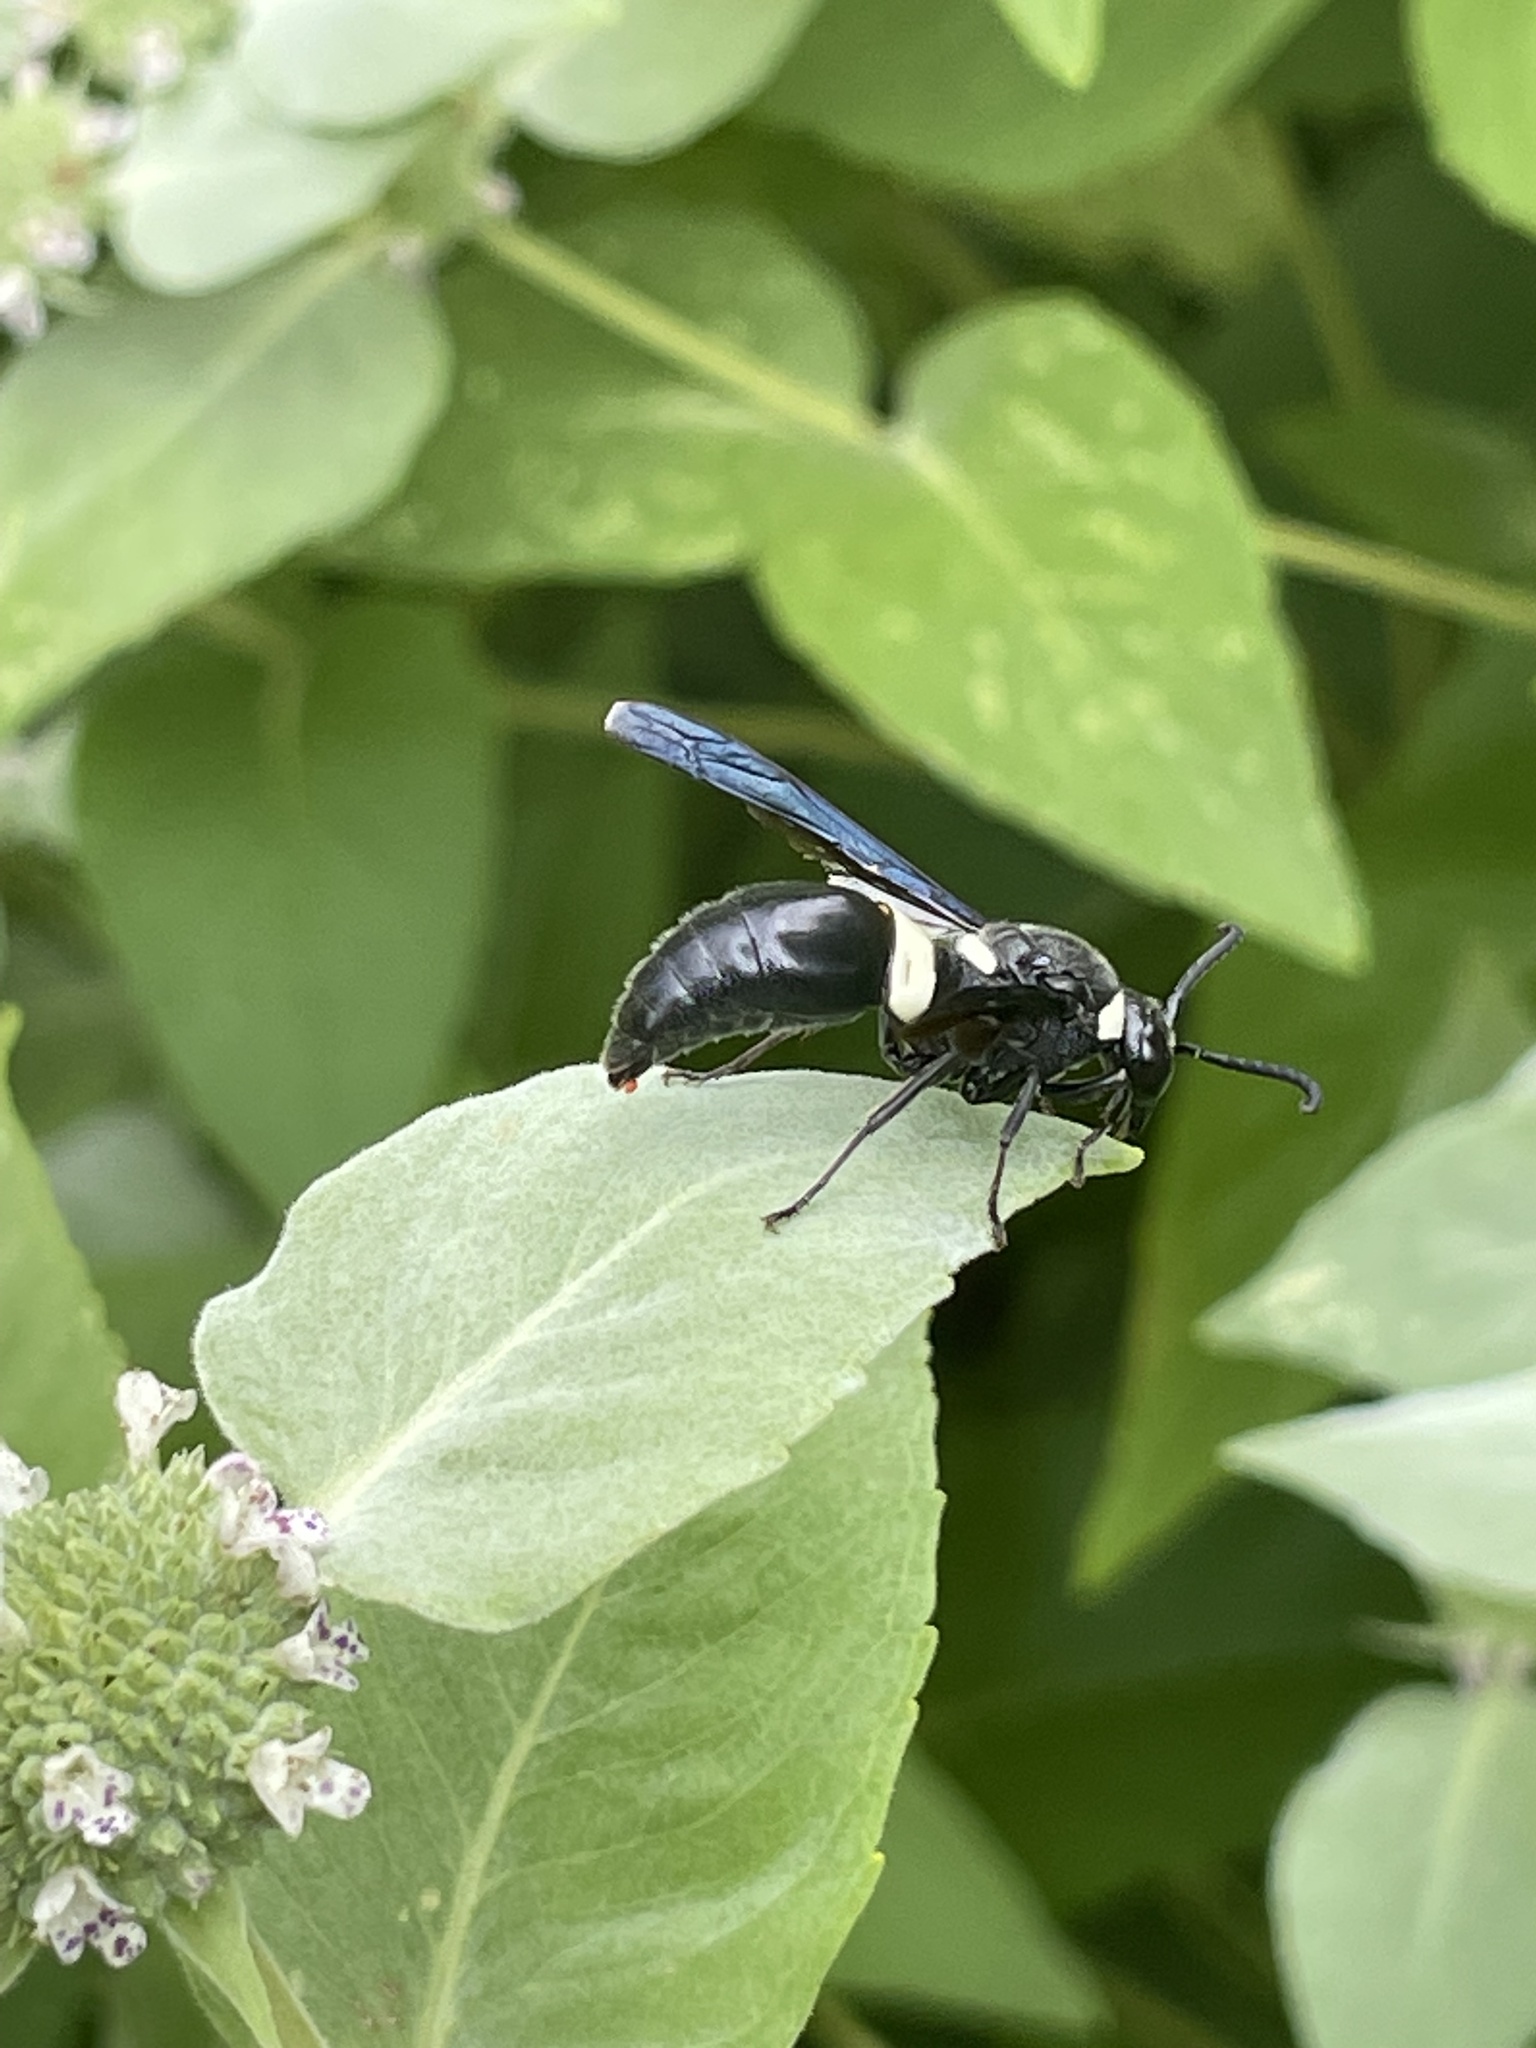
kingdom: Animalia
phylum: Arthropoda
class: Insecta
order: Hymenoptera
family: Eumenidae
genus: Monobia
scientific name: Monobia quadridens
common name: Four-toothed mason wasp
